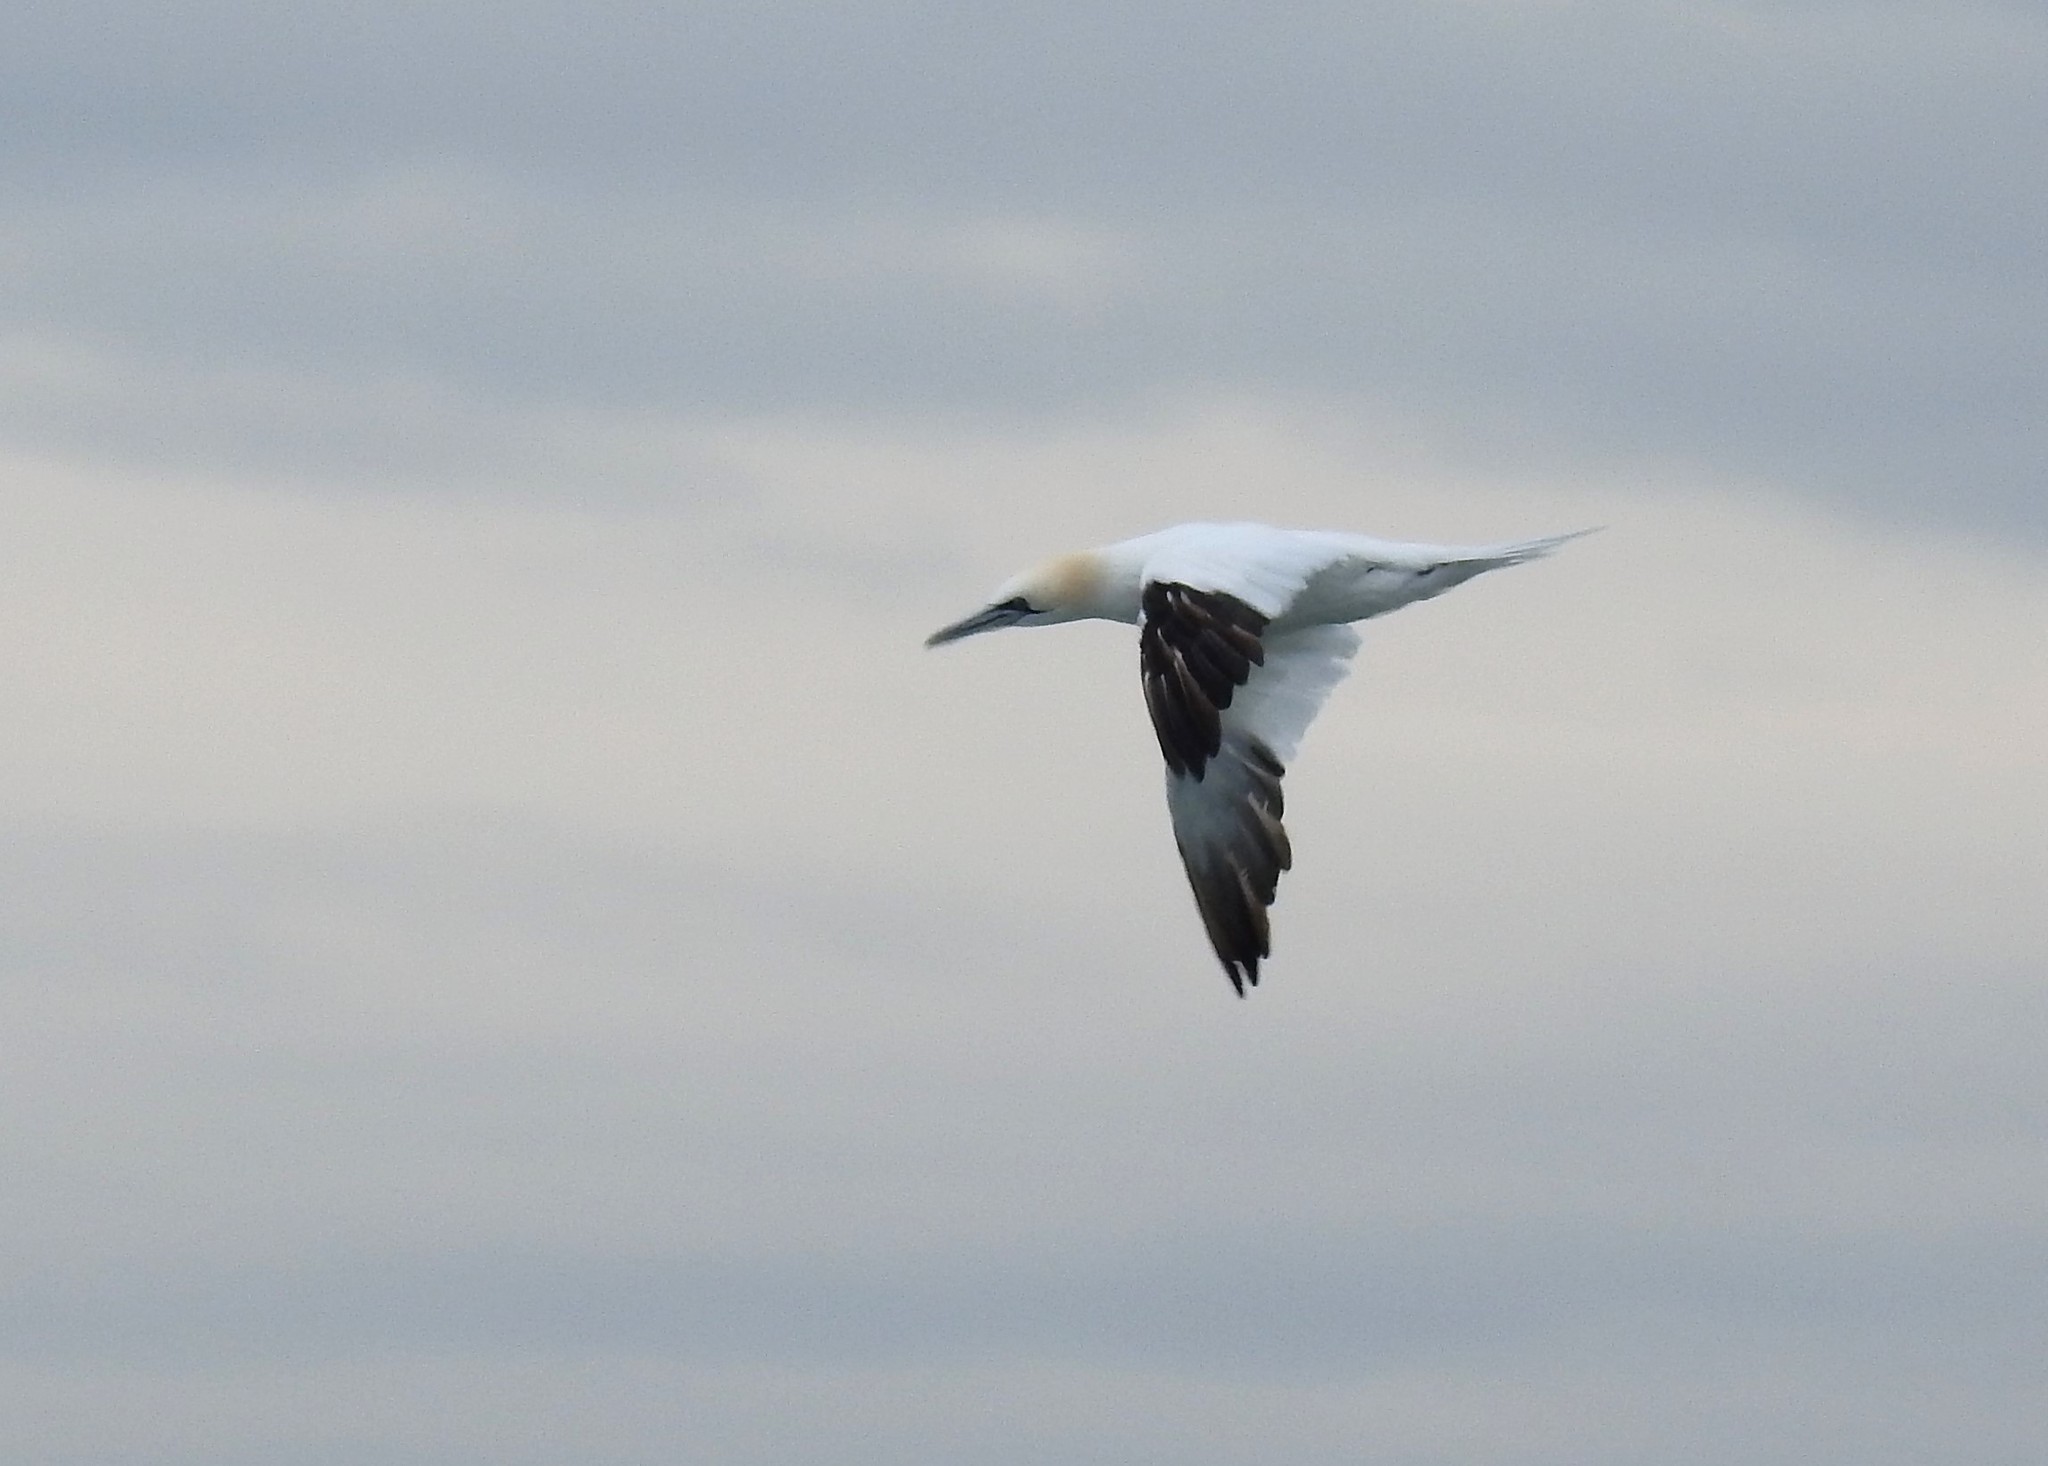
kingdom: Animalia
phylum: Chordata
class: Aves
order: Suliformes
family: Sulidae
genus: Morus
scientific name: Morus bassanus
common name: Northern gannet
